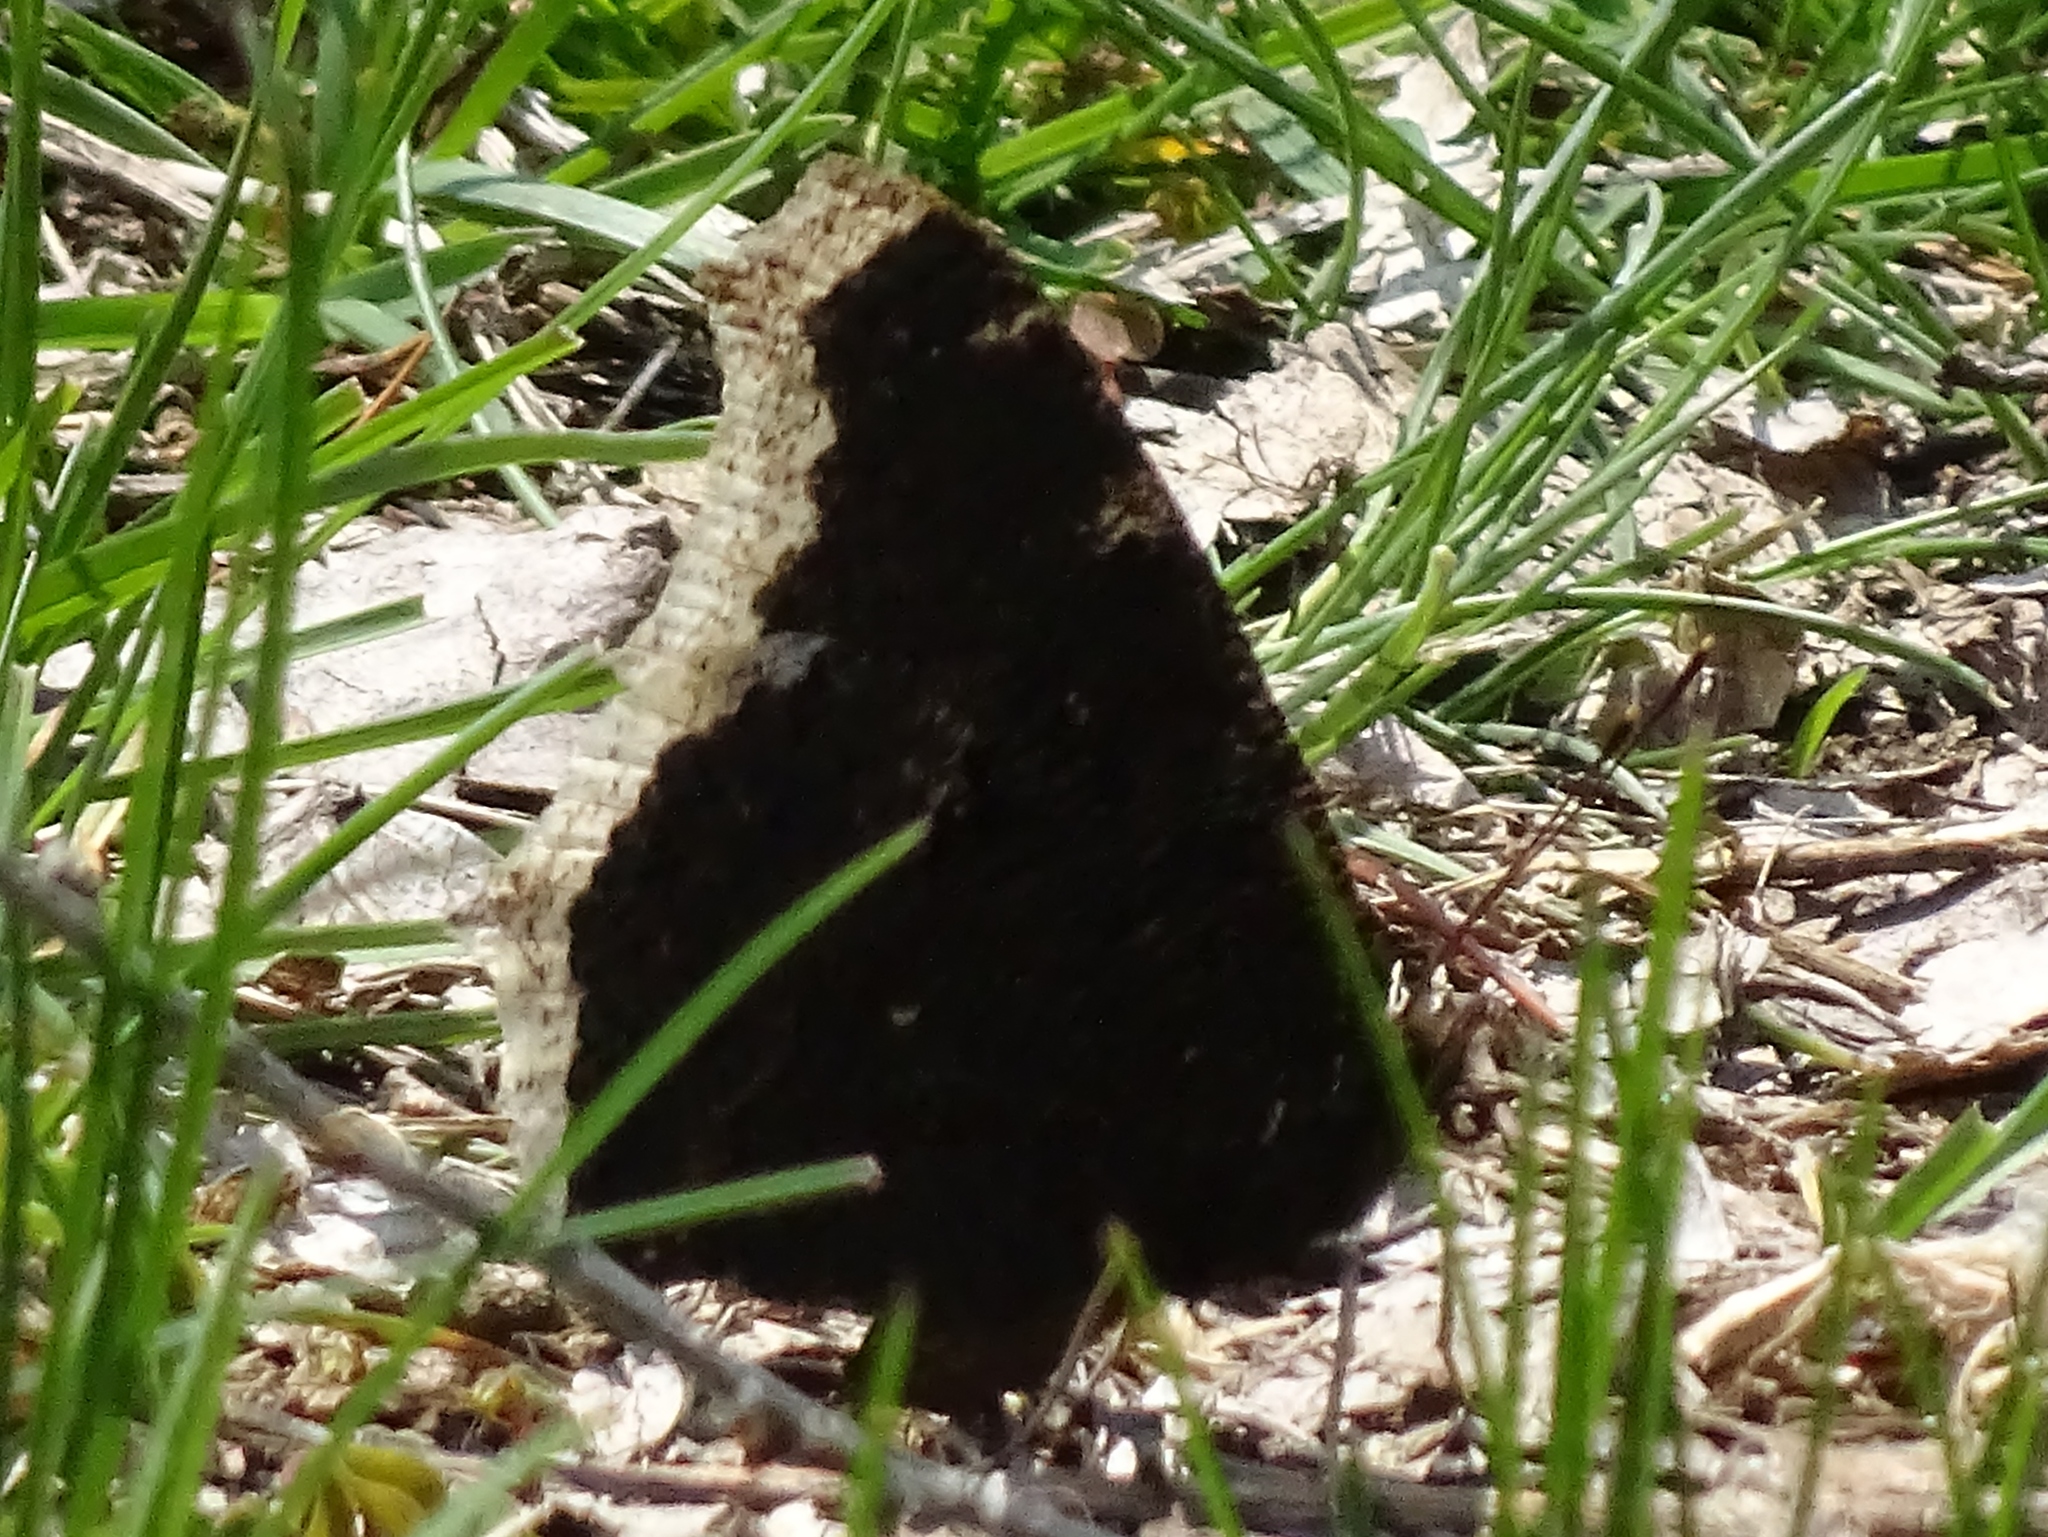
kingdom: Animalia
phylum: Arthropoda
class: Insecta
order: Lepidoptera
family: Nymphalidae
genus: Nymphalis
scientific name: Nymphalis antiopa
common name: Camberwell beauty
